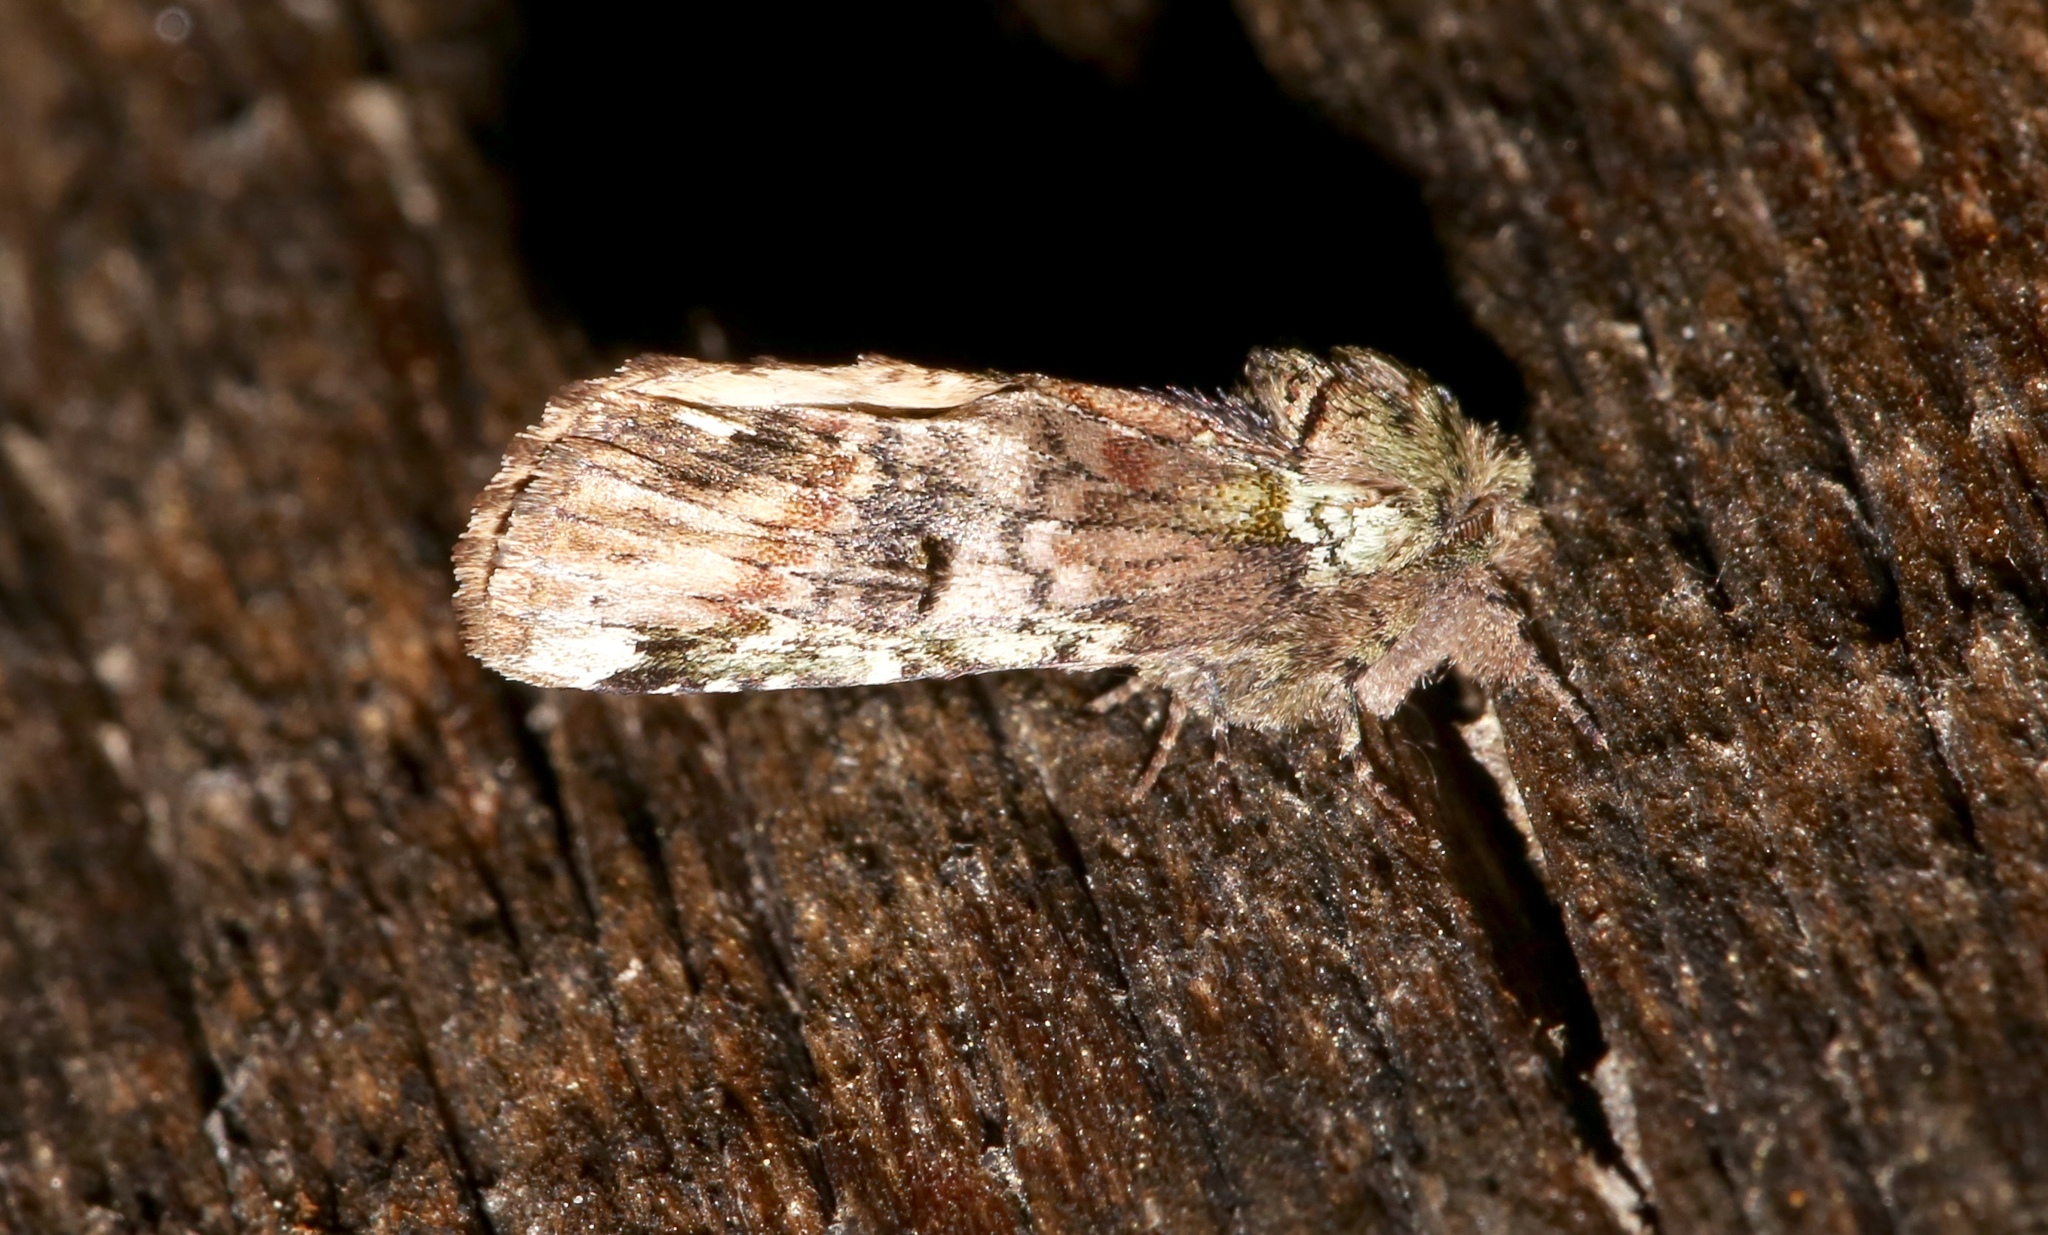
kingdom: Animalia
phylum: Arthropoda
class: Insecta
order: Lepidoptera
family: Notodontidae
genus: Schizura
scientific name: Schizura
